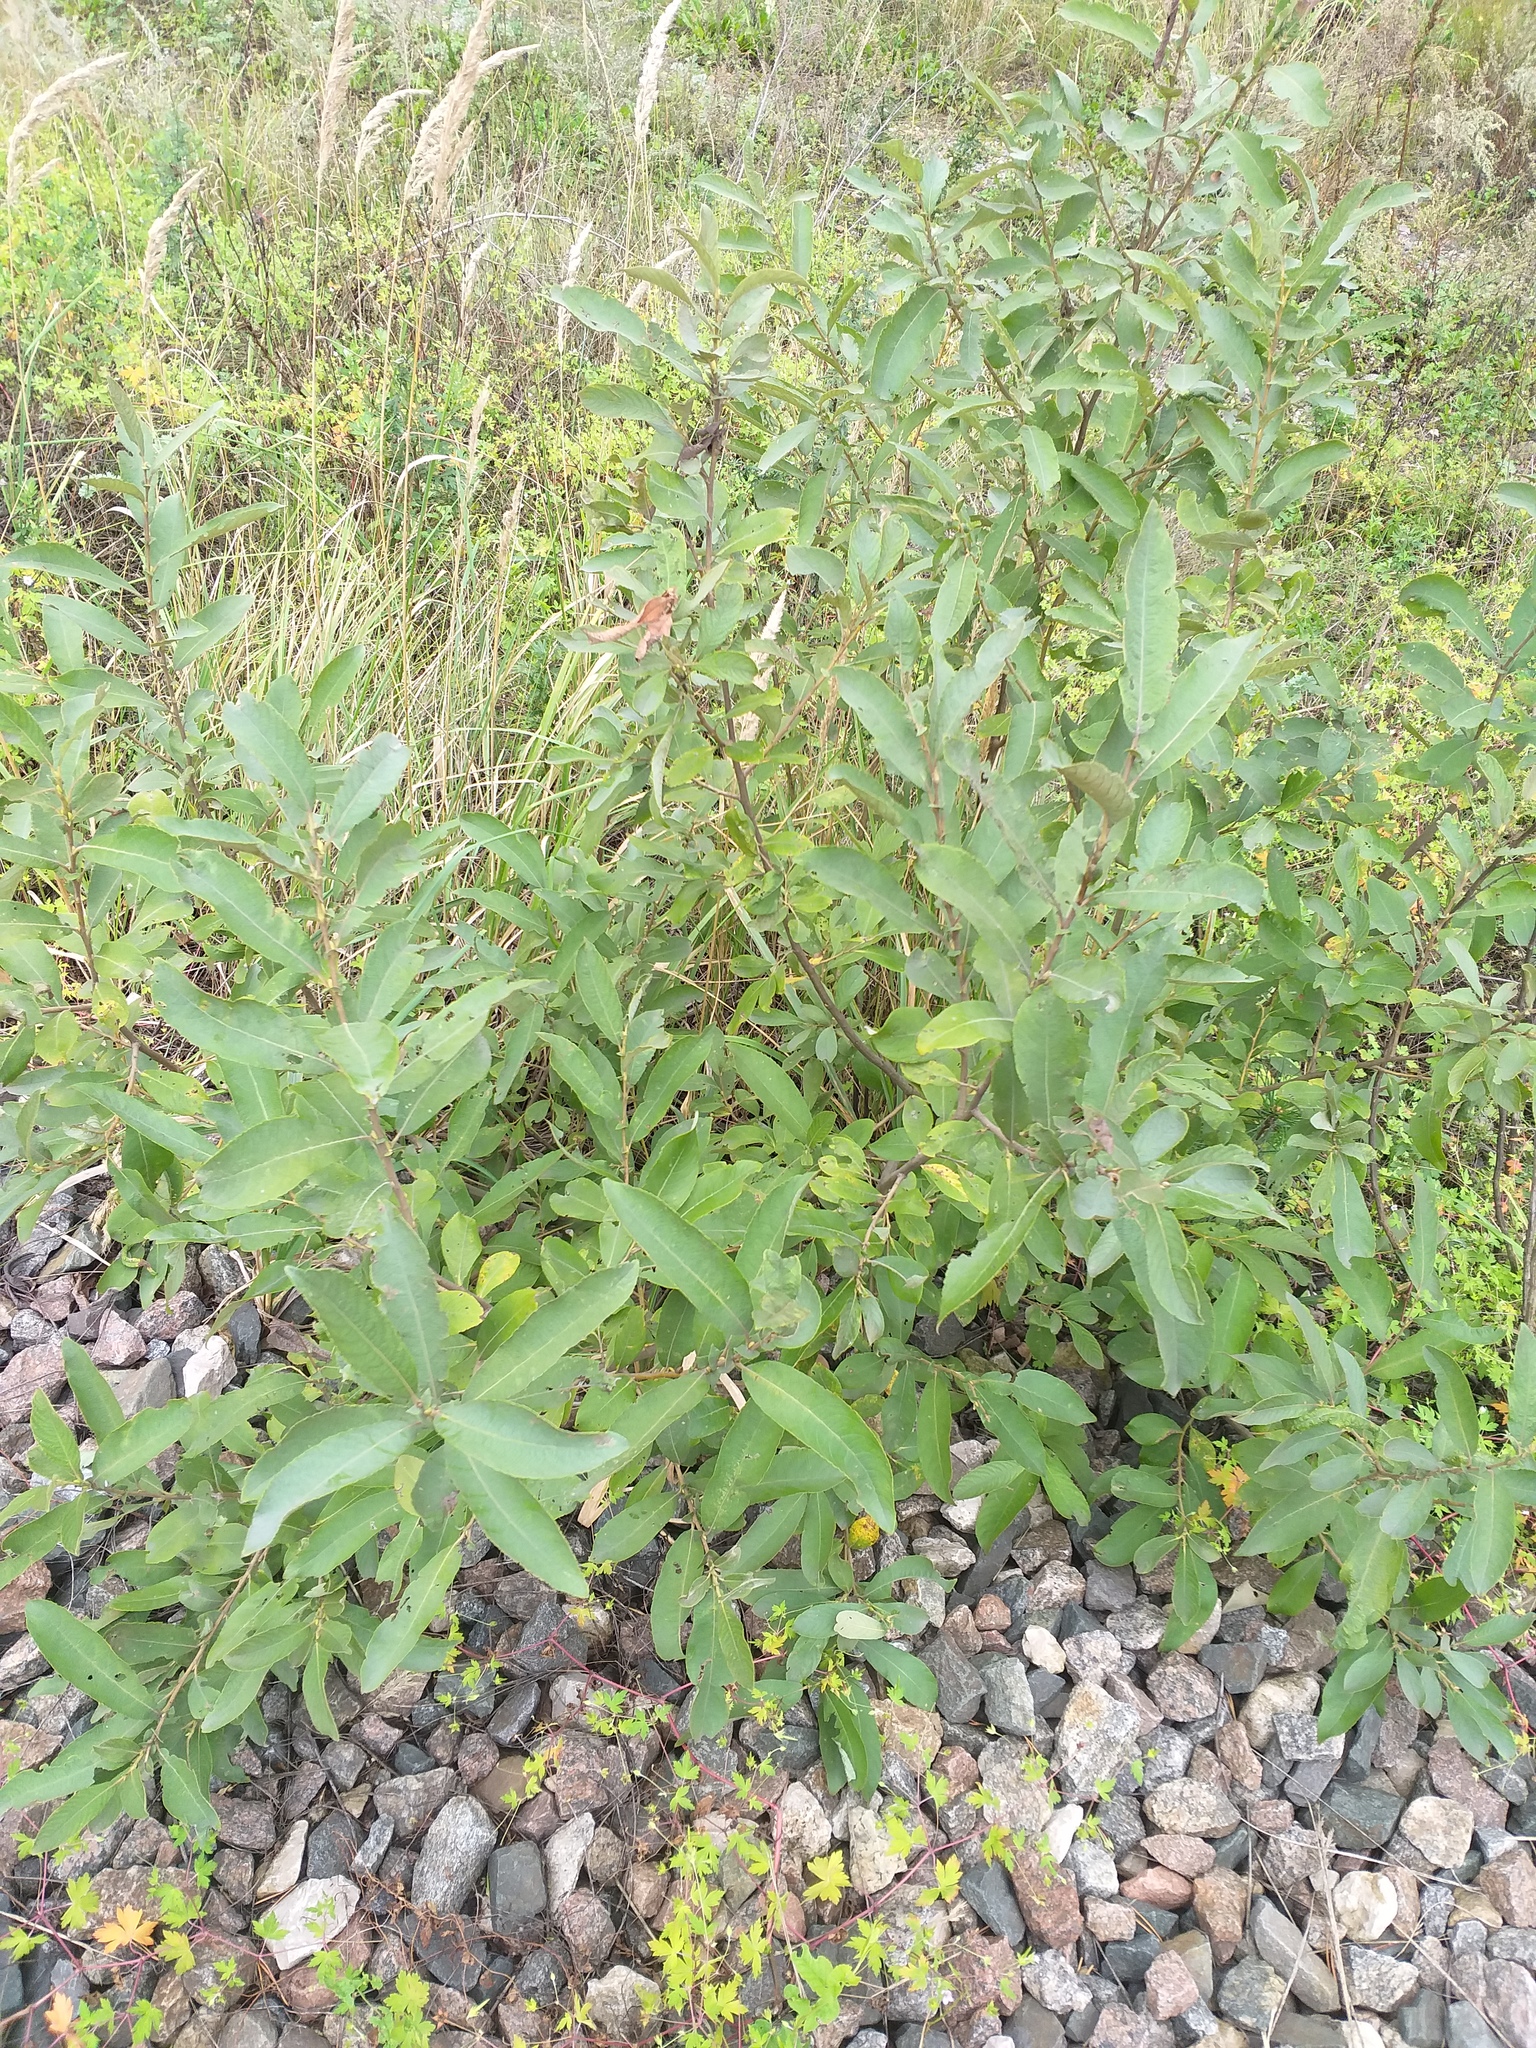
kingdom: Plantae
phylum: Tracheophyta
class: Magnoliopsida
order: Malpighiales
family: Salicaceae
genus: Salix
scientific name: Salix cinerea
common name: Common sallow
